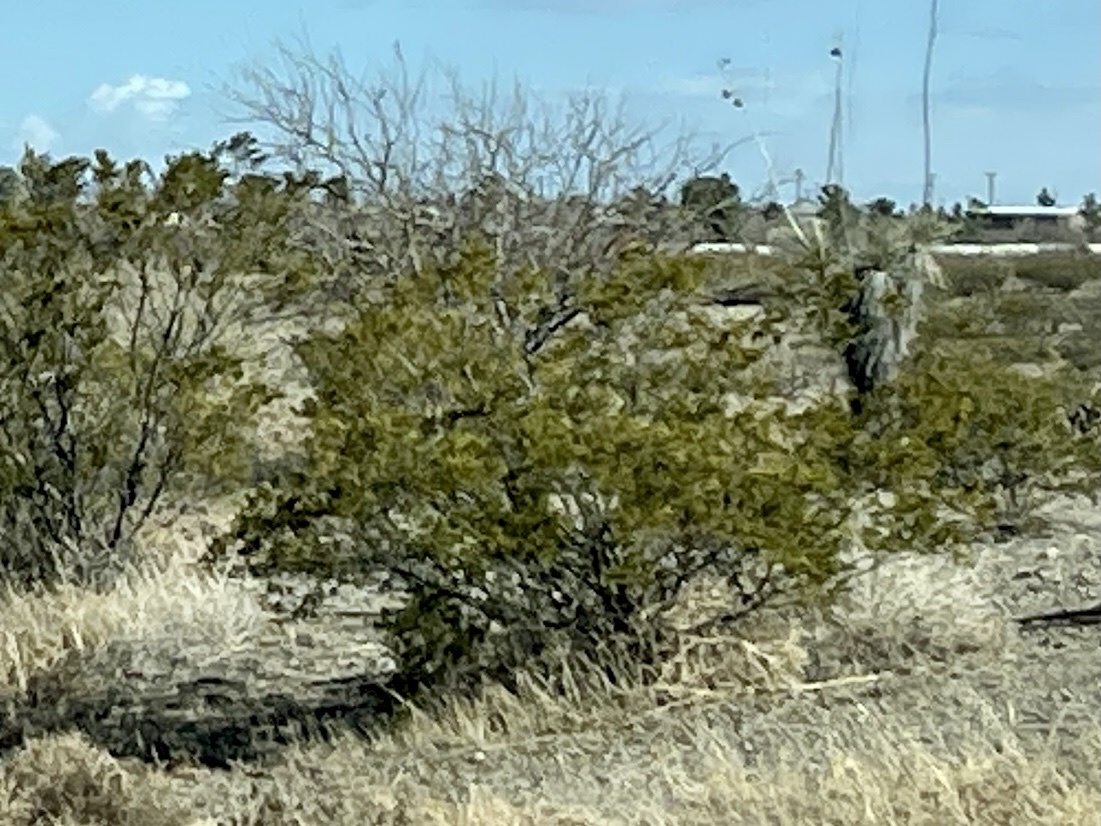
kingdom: Plantae
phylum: Tracheophyta
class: Magnoliopsida
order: Zygophyllales
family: Zygophyllaceae
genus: Larrea
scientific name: Larrea tridentata
